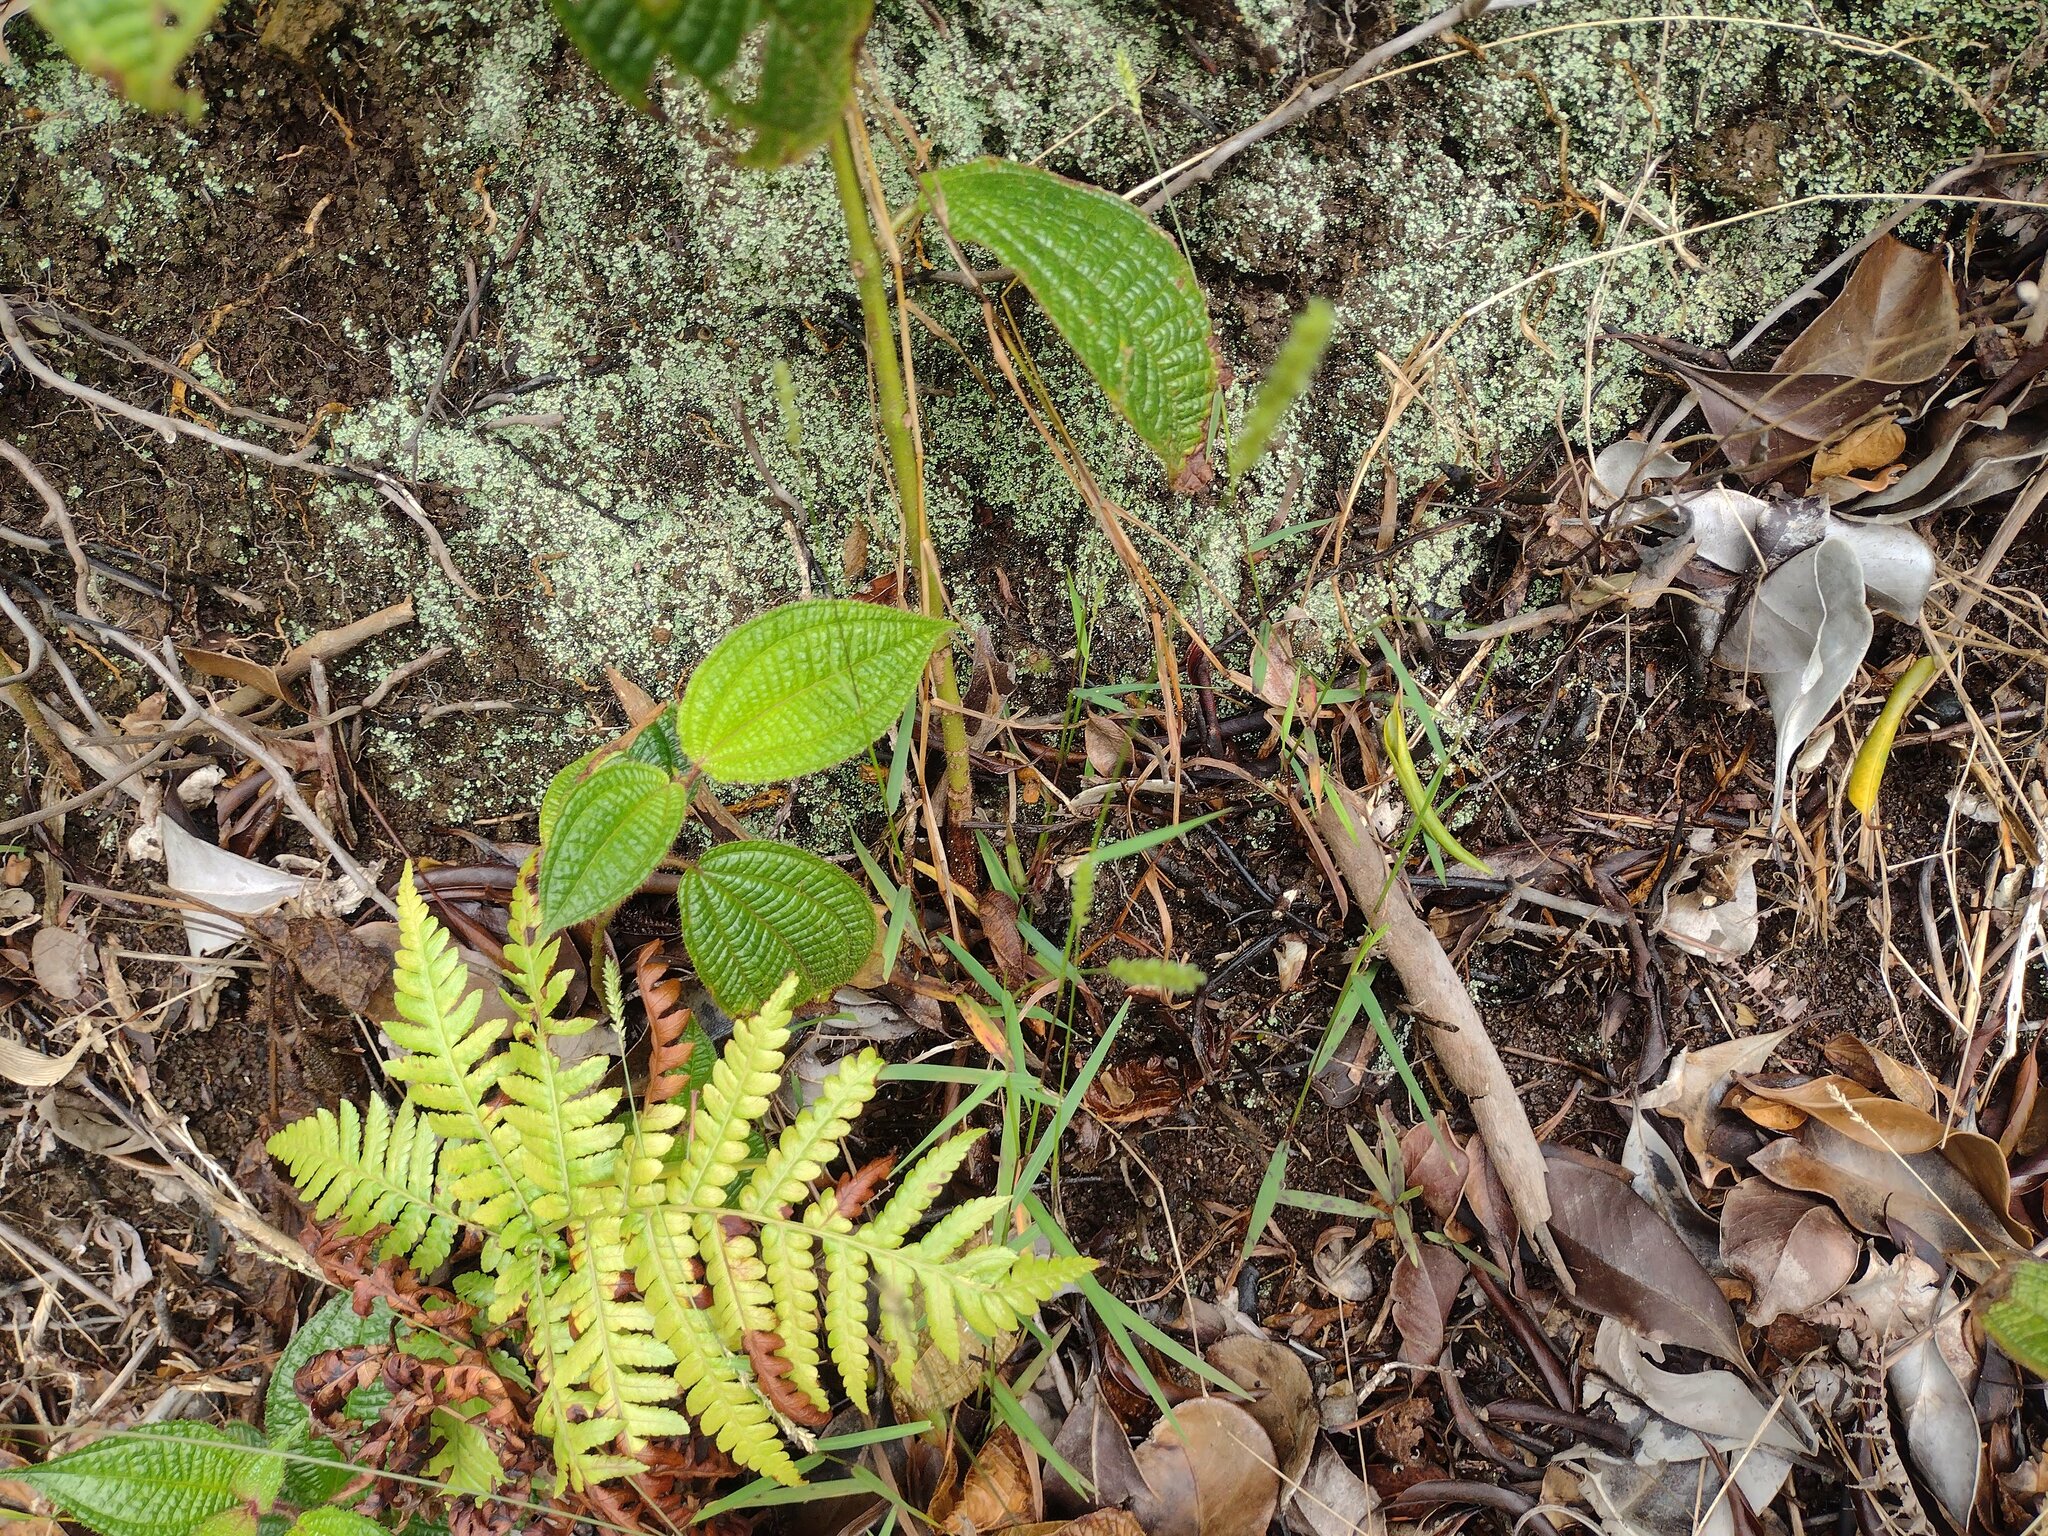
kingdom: Plantae
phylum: Tracheophyta
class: Liliopsida
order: Poales
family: Poaceae
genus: Sacciolepis
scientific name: Sacciolepis indica
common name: Glenwoodgrass
